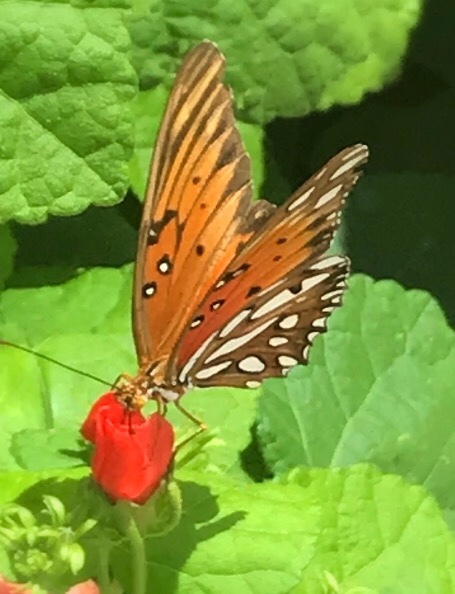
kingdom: Animalia
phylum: Arthropoda
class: Insecta
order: Lepidoptera
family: Nymphalidae
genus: Dione
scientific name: Dione vanillae
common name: Gulf fritillary
